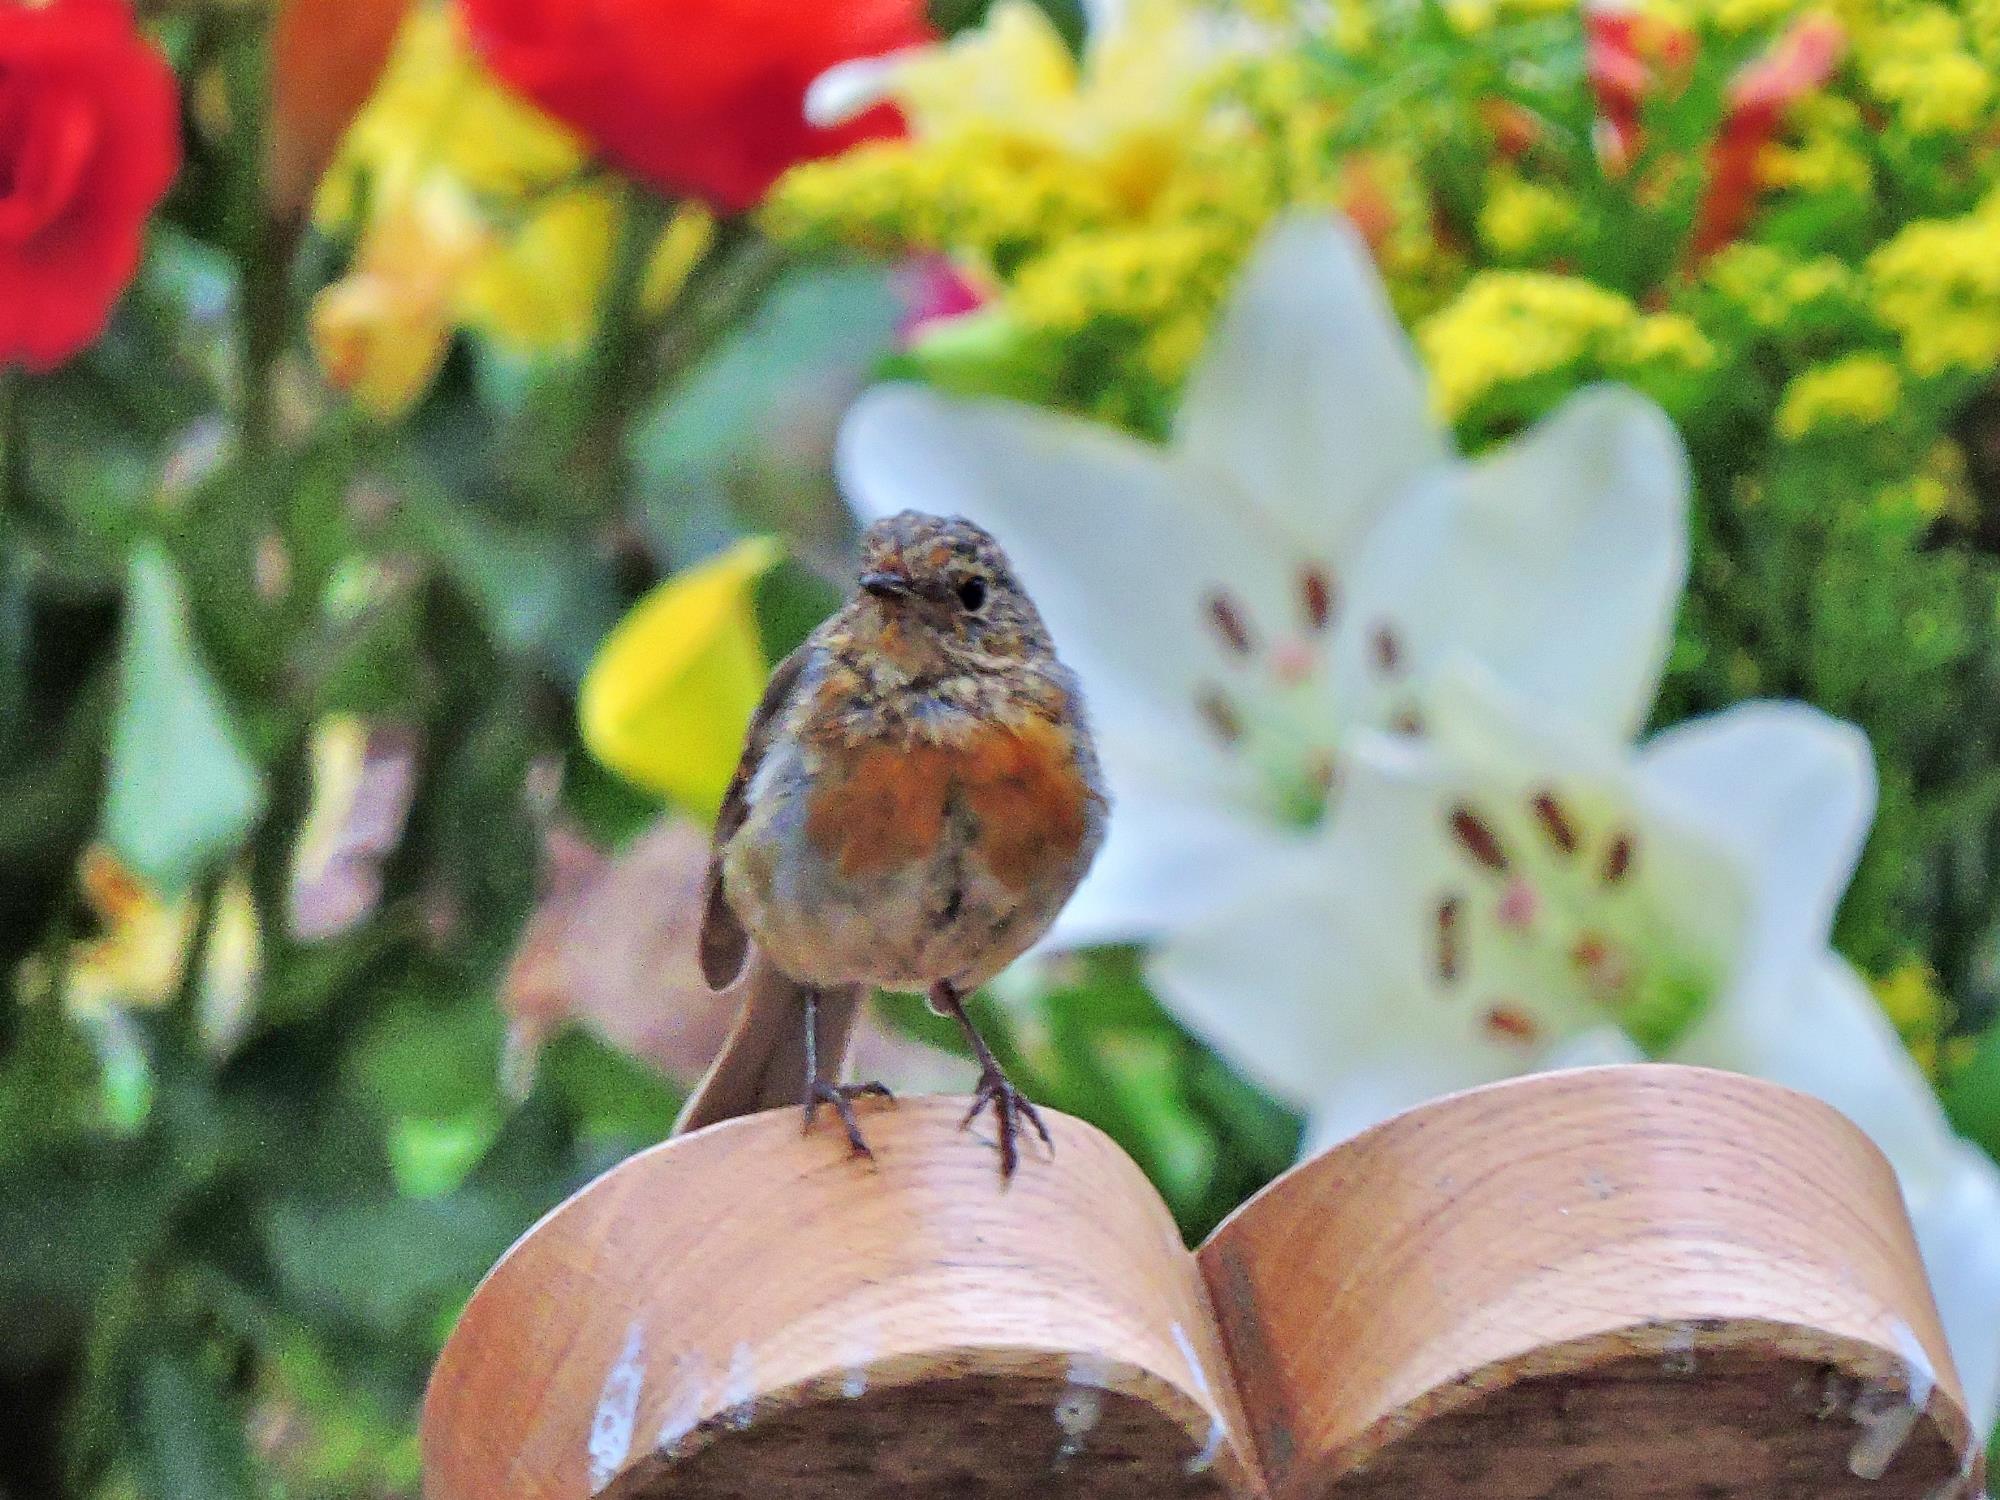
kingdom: Animalia
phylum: Chordata
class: Aves
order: Passeriformes
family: Muscicapidae
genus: Erithacus
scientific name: Erithacus rubecula
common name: European robin
